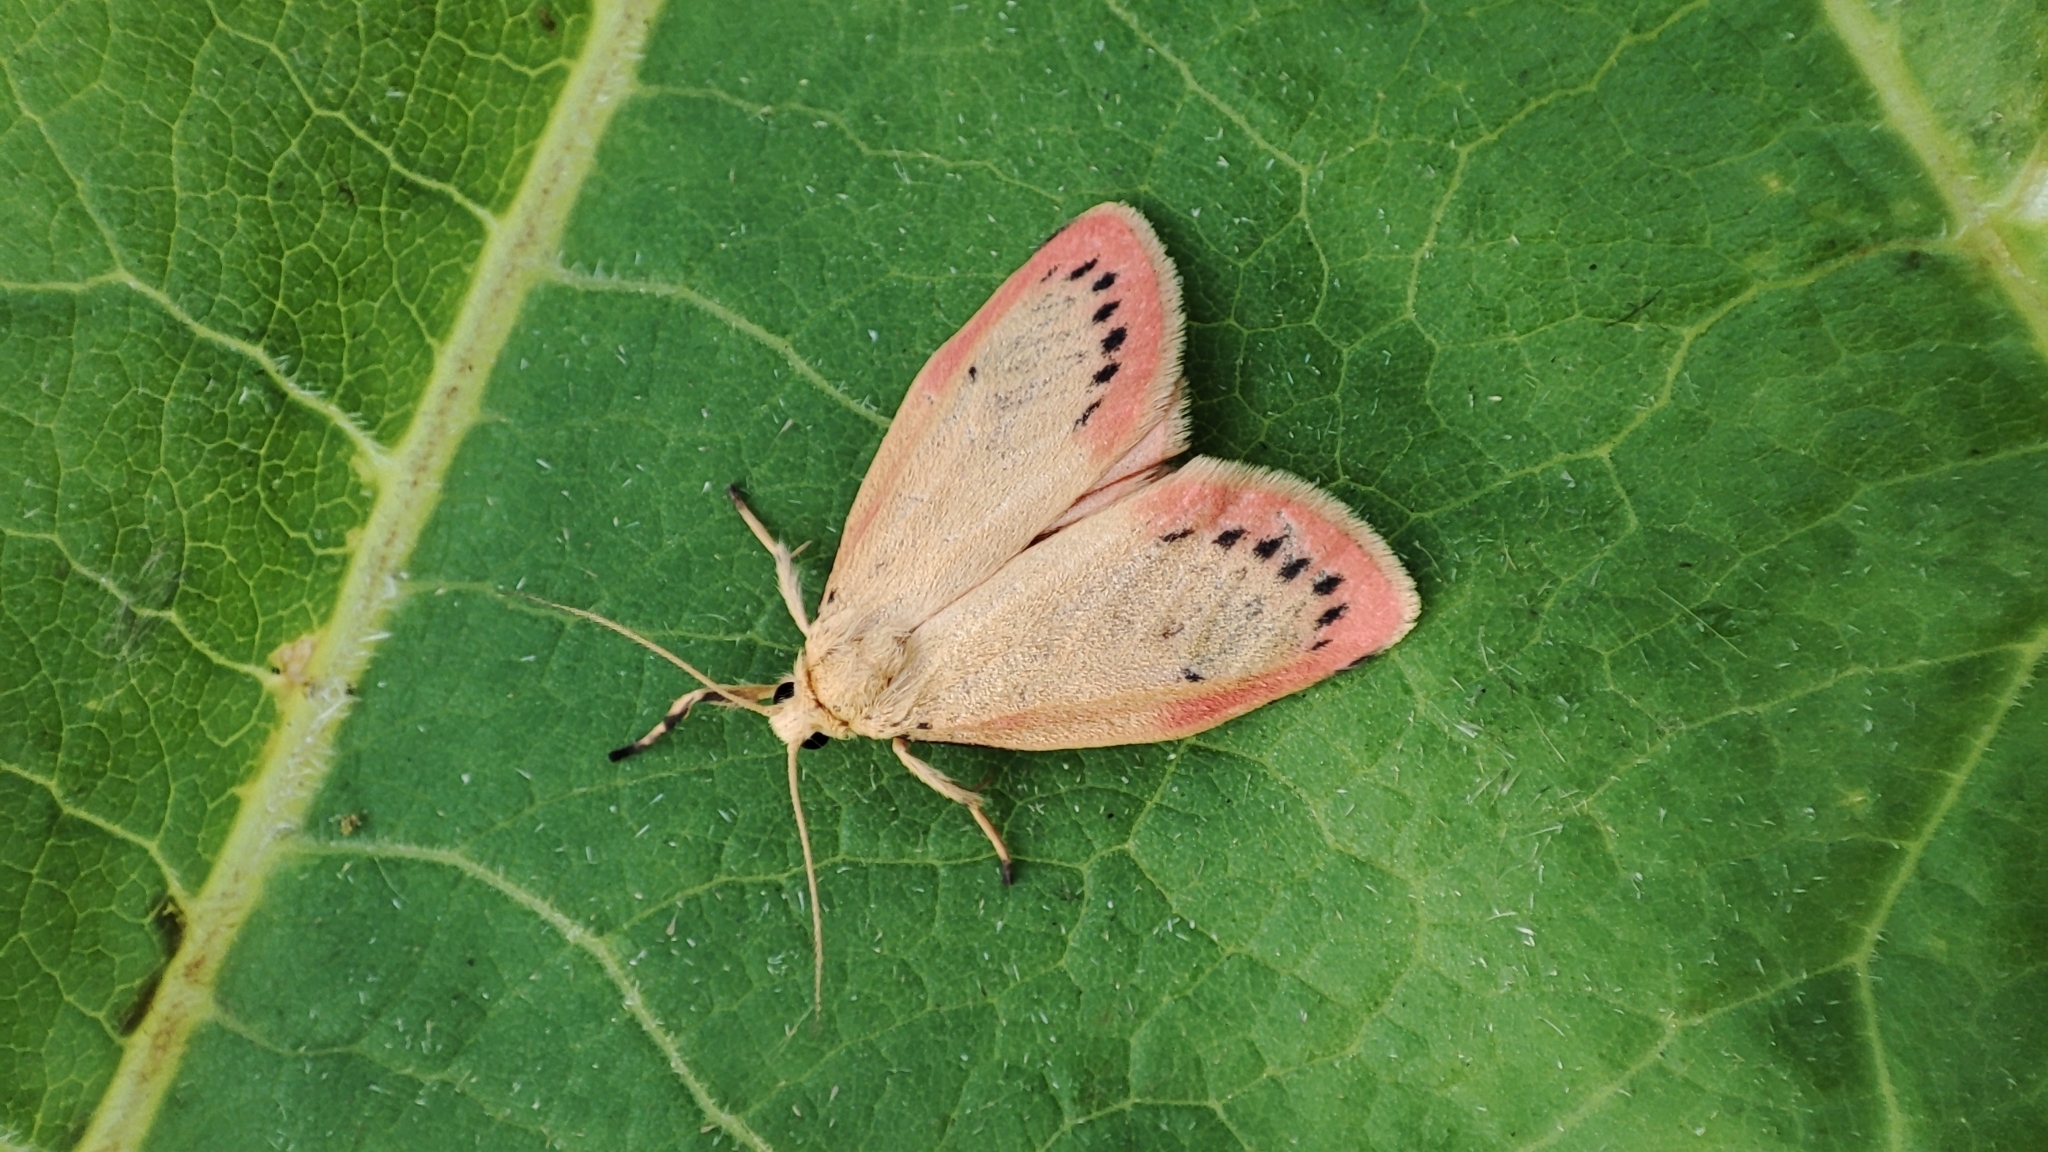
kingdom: Animalia
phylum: Arthropoda
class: Insecta
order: Lepidoptera
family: Erebidae
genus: Miltochrista
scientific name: Miltochrista miniata
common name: Rosy footman
